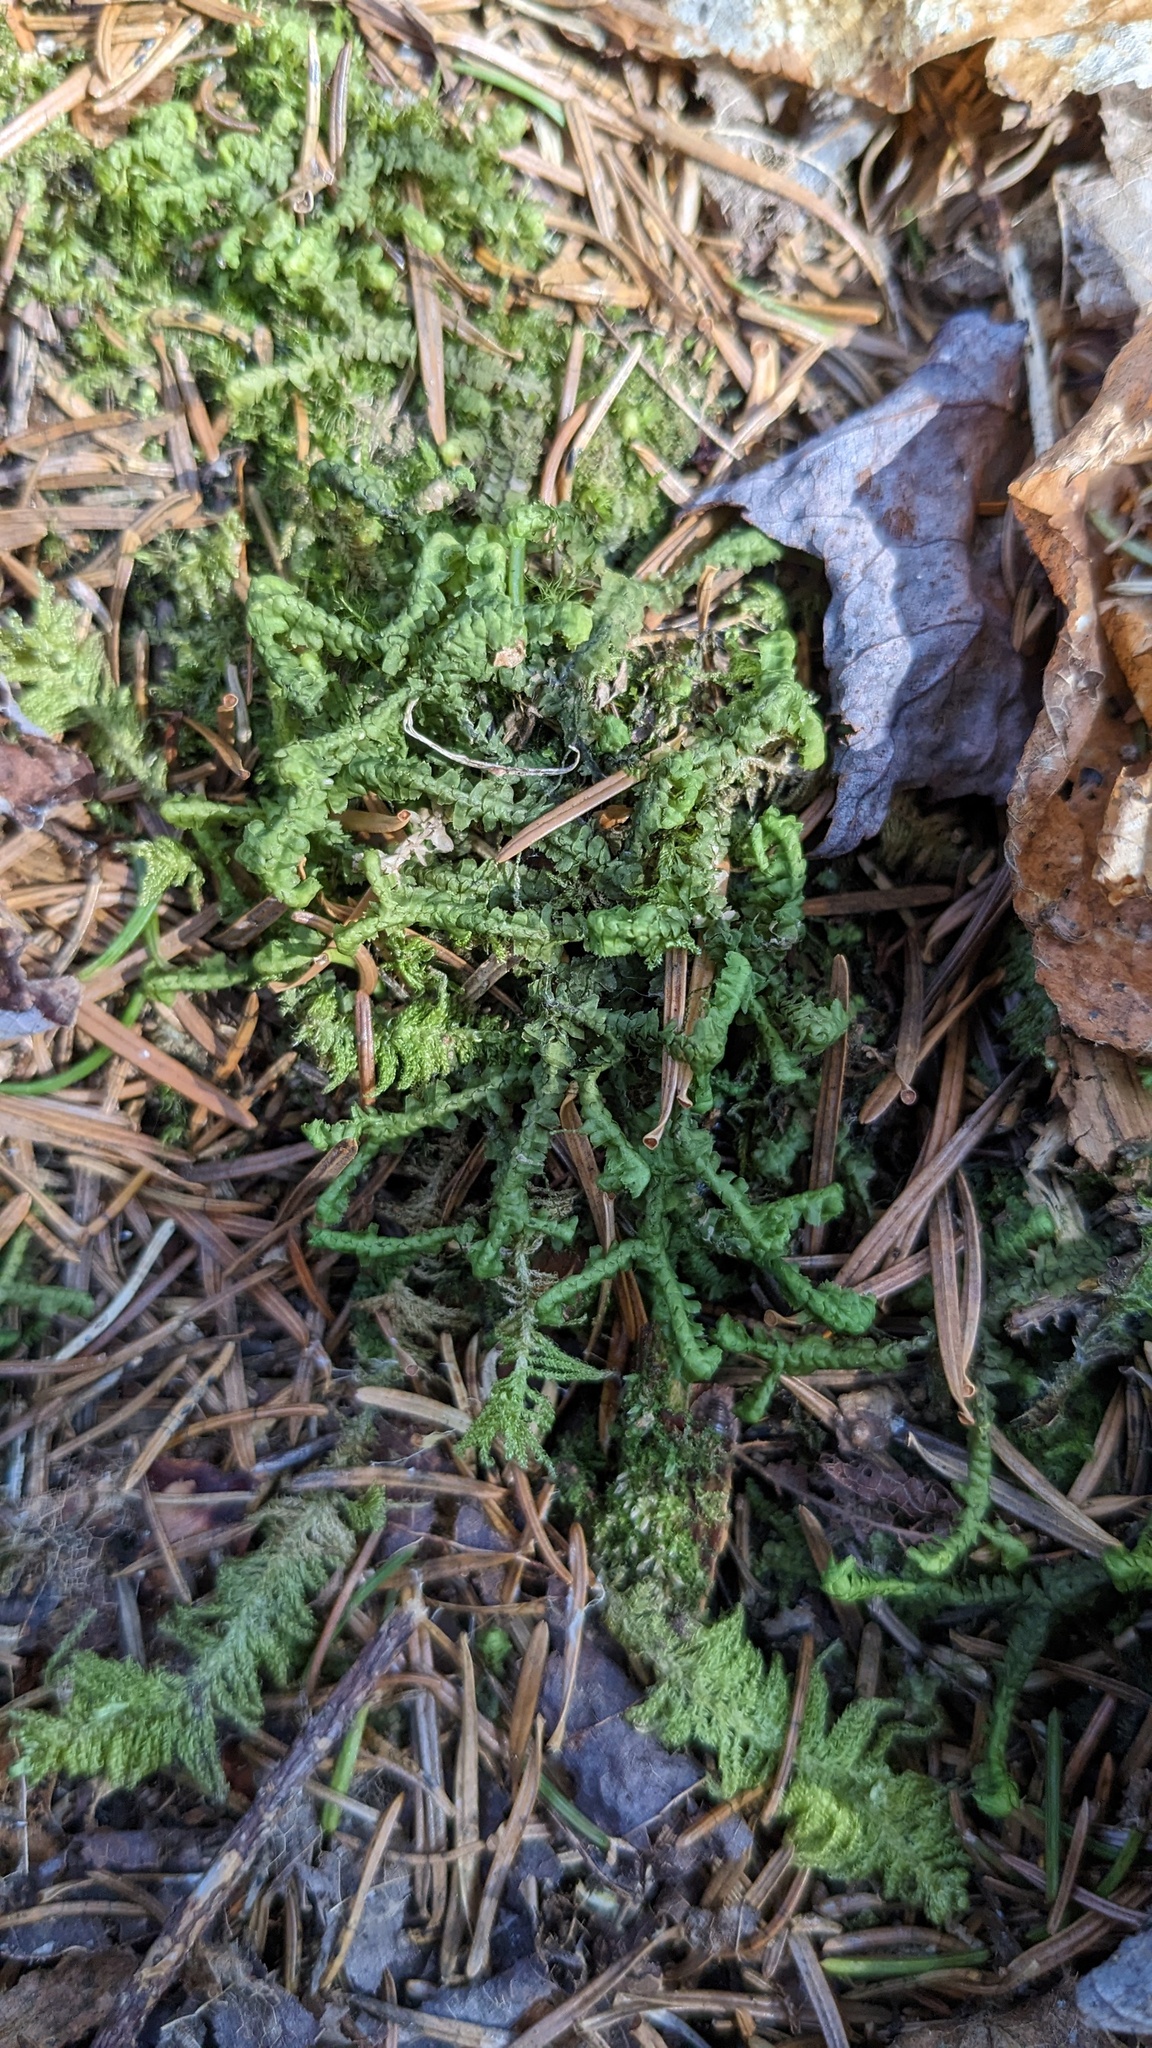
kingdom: Plantae
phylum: Marchantiophyta
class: Jungermanniopsida
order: Jungermanniales
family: Lepidoziaceae
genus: Bazzania
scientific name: Bazzania trilobata
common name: Three-lobed whipwort
